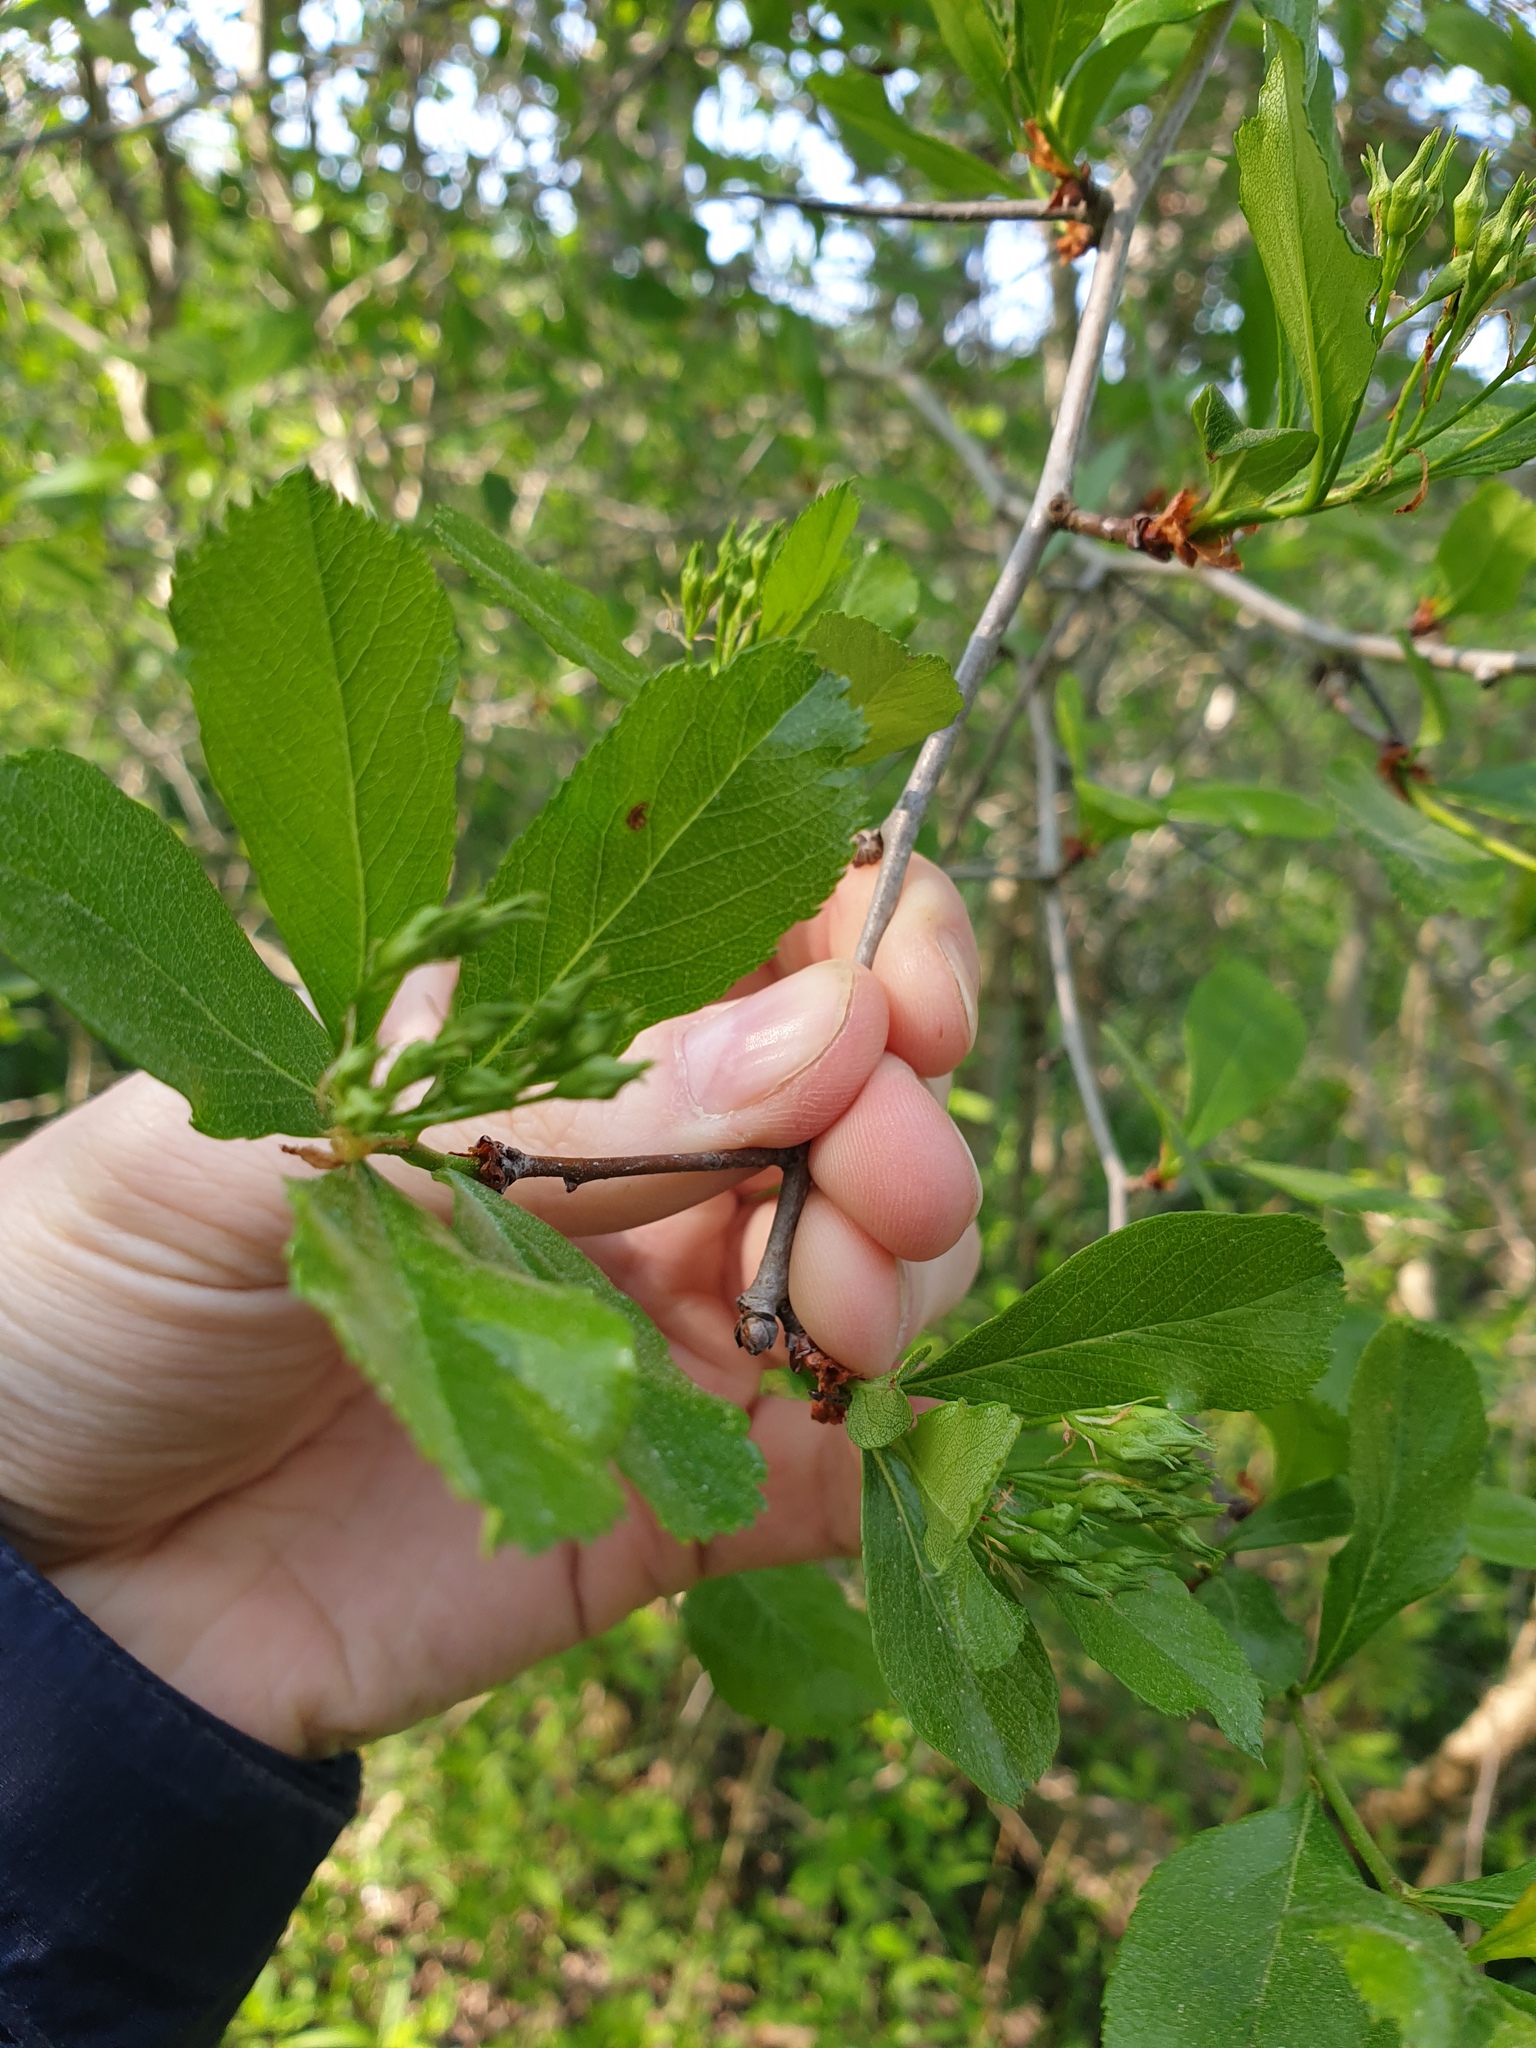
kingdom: Plantae
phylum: Tracheophyta
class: Magnoliopsida
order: Rosales
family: Rosaceae
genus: Crataegus
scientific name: Crataegus crus-galli
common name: Cockspurthorn
